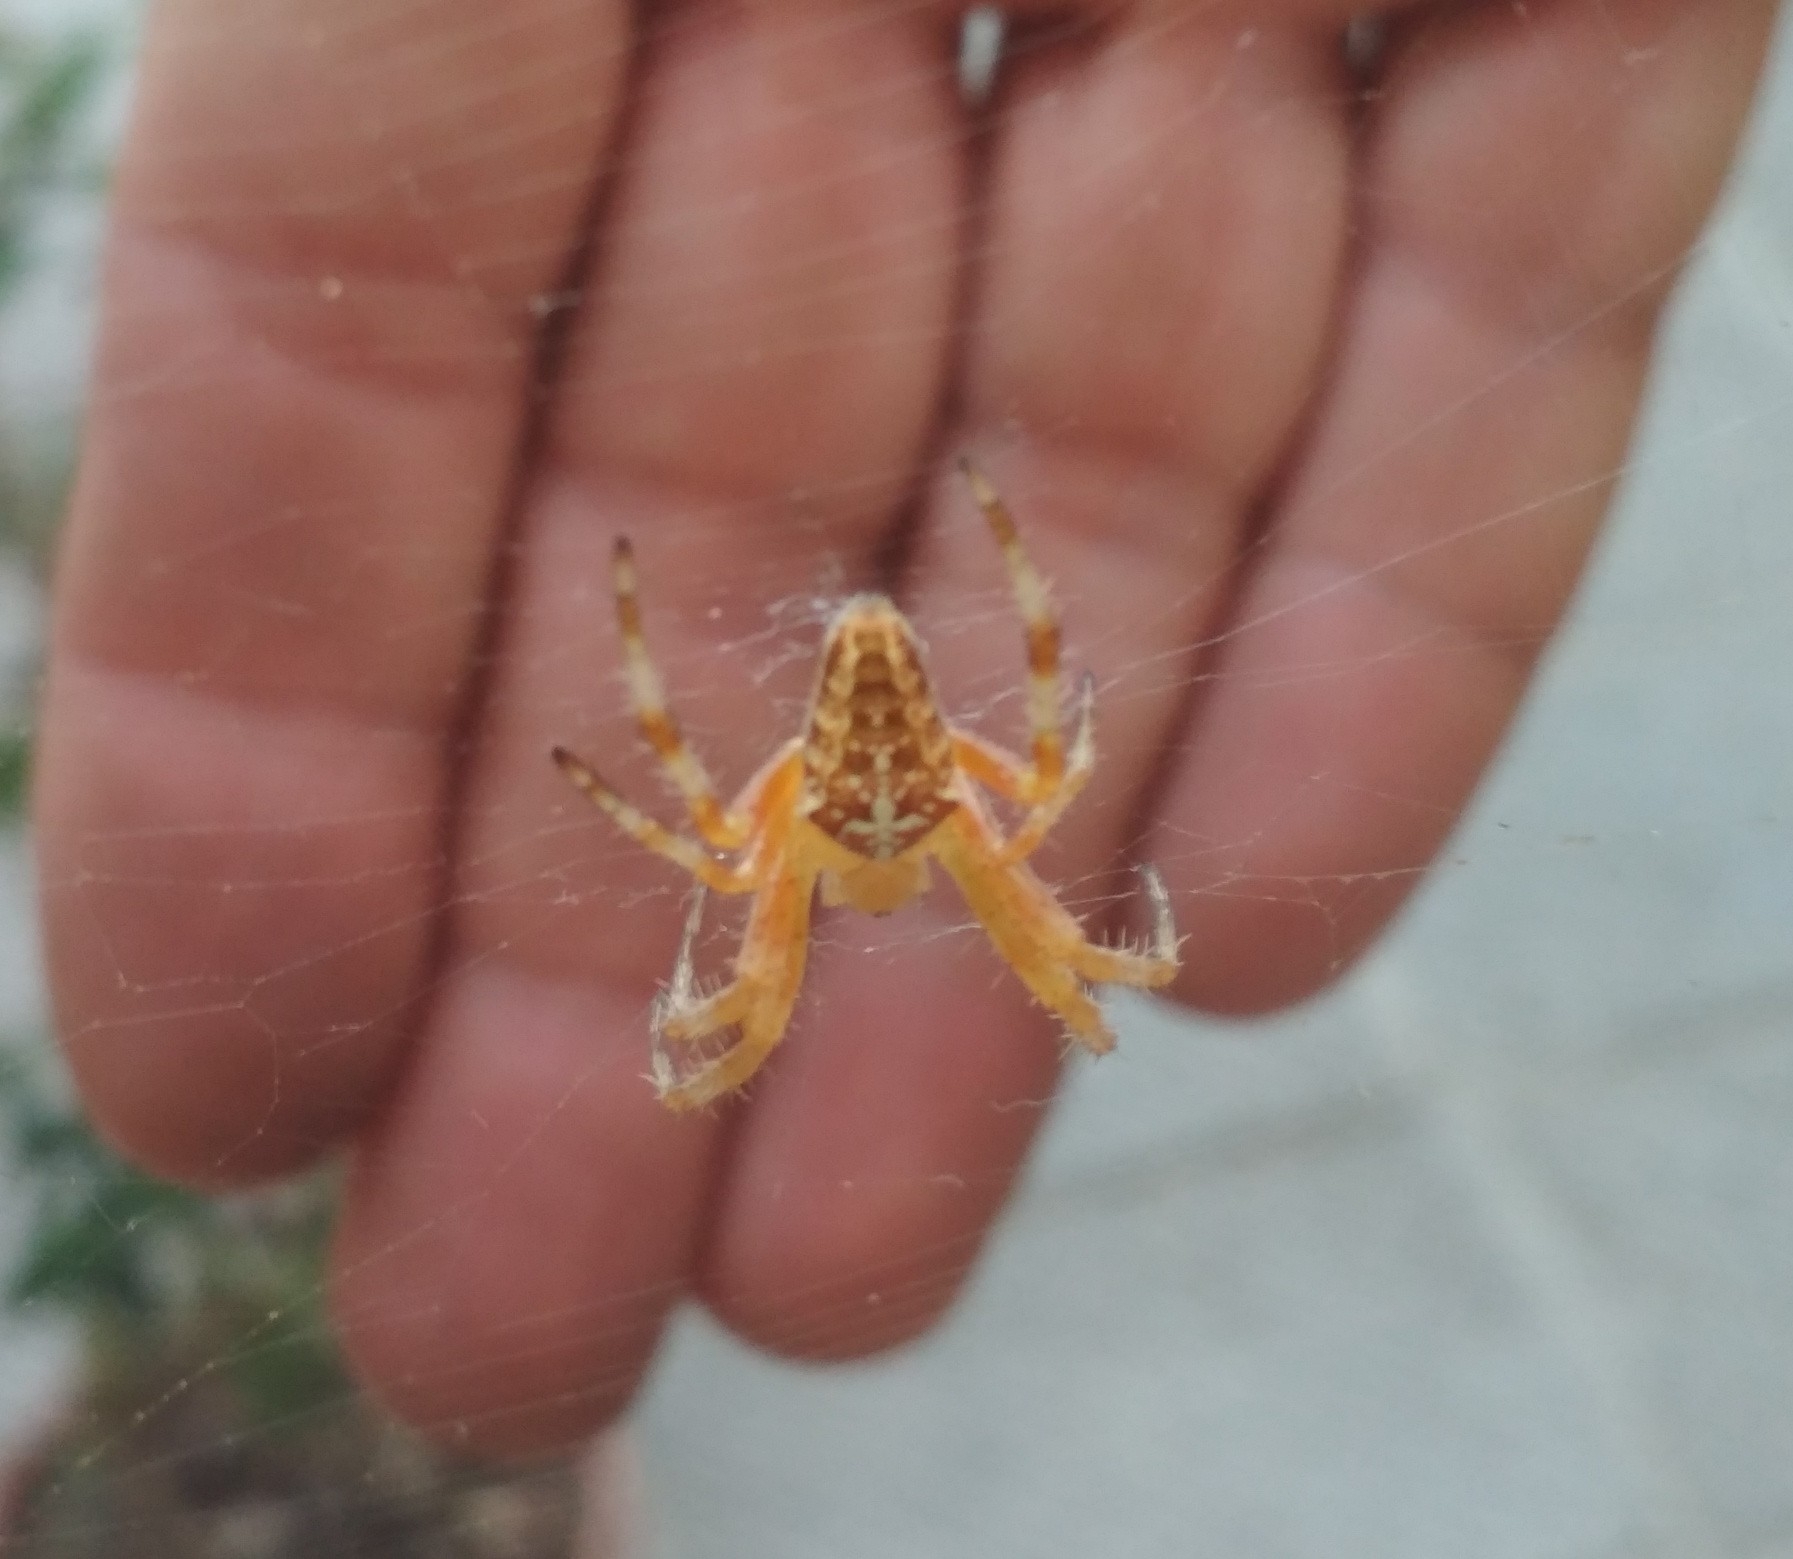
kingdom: Animalia
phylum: Arthropoda
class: Arachnida
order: Araneae
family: Araneidae
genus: Araneus
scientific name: Araneus diadematus
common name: Cross orbweaver
